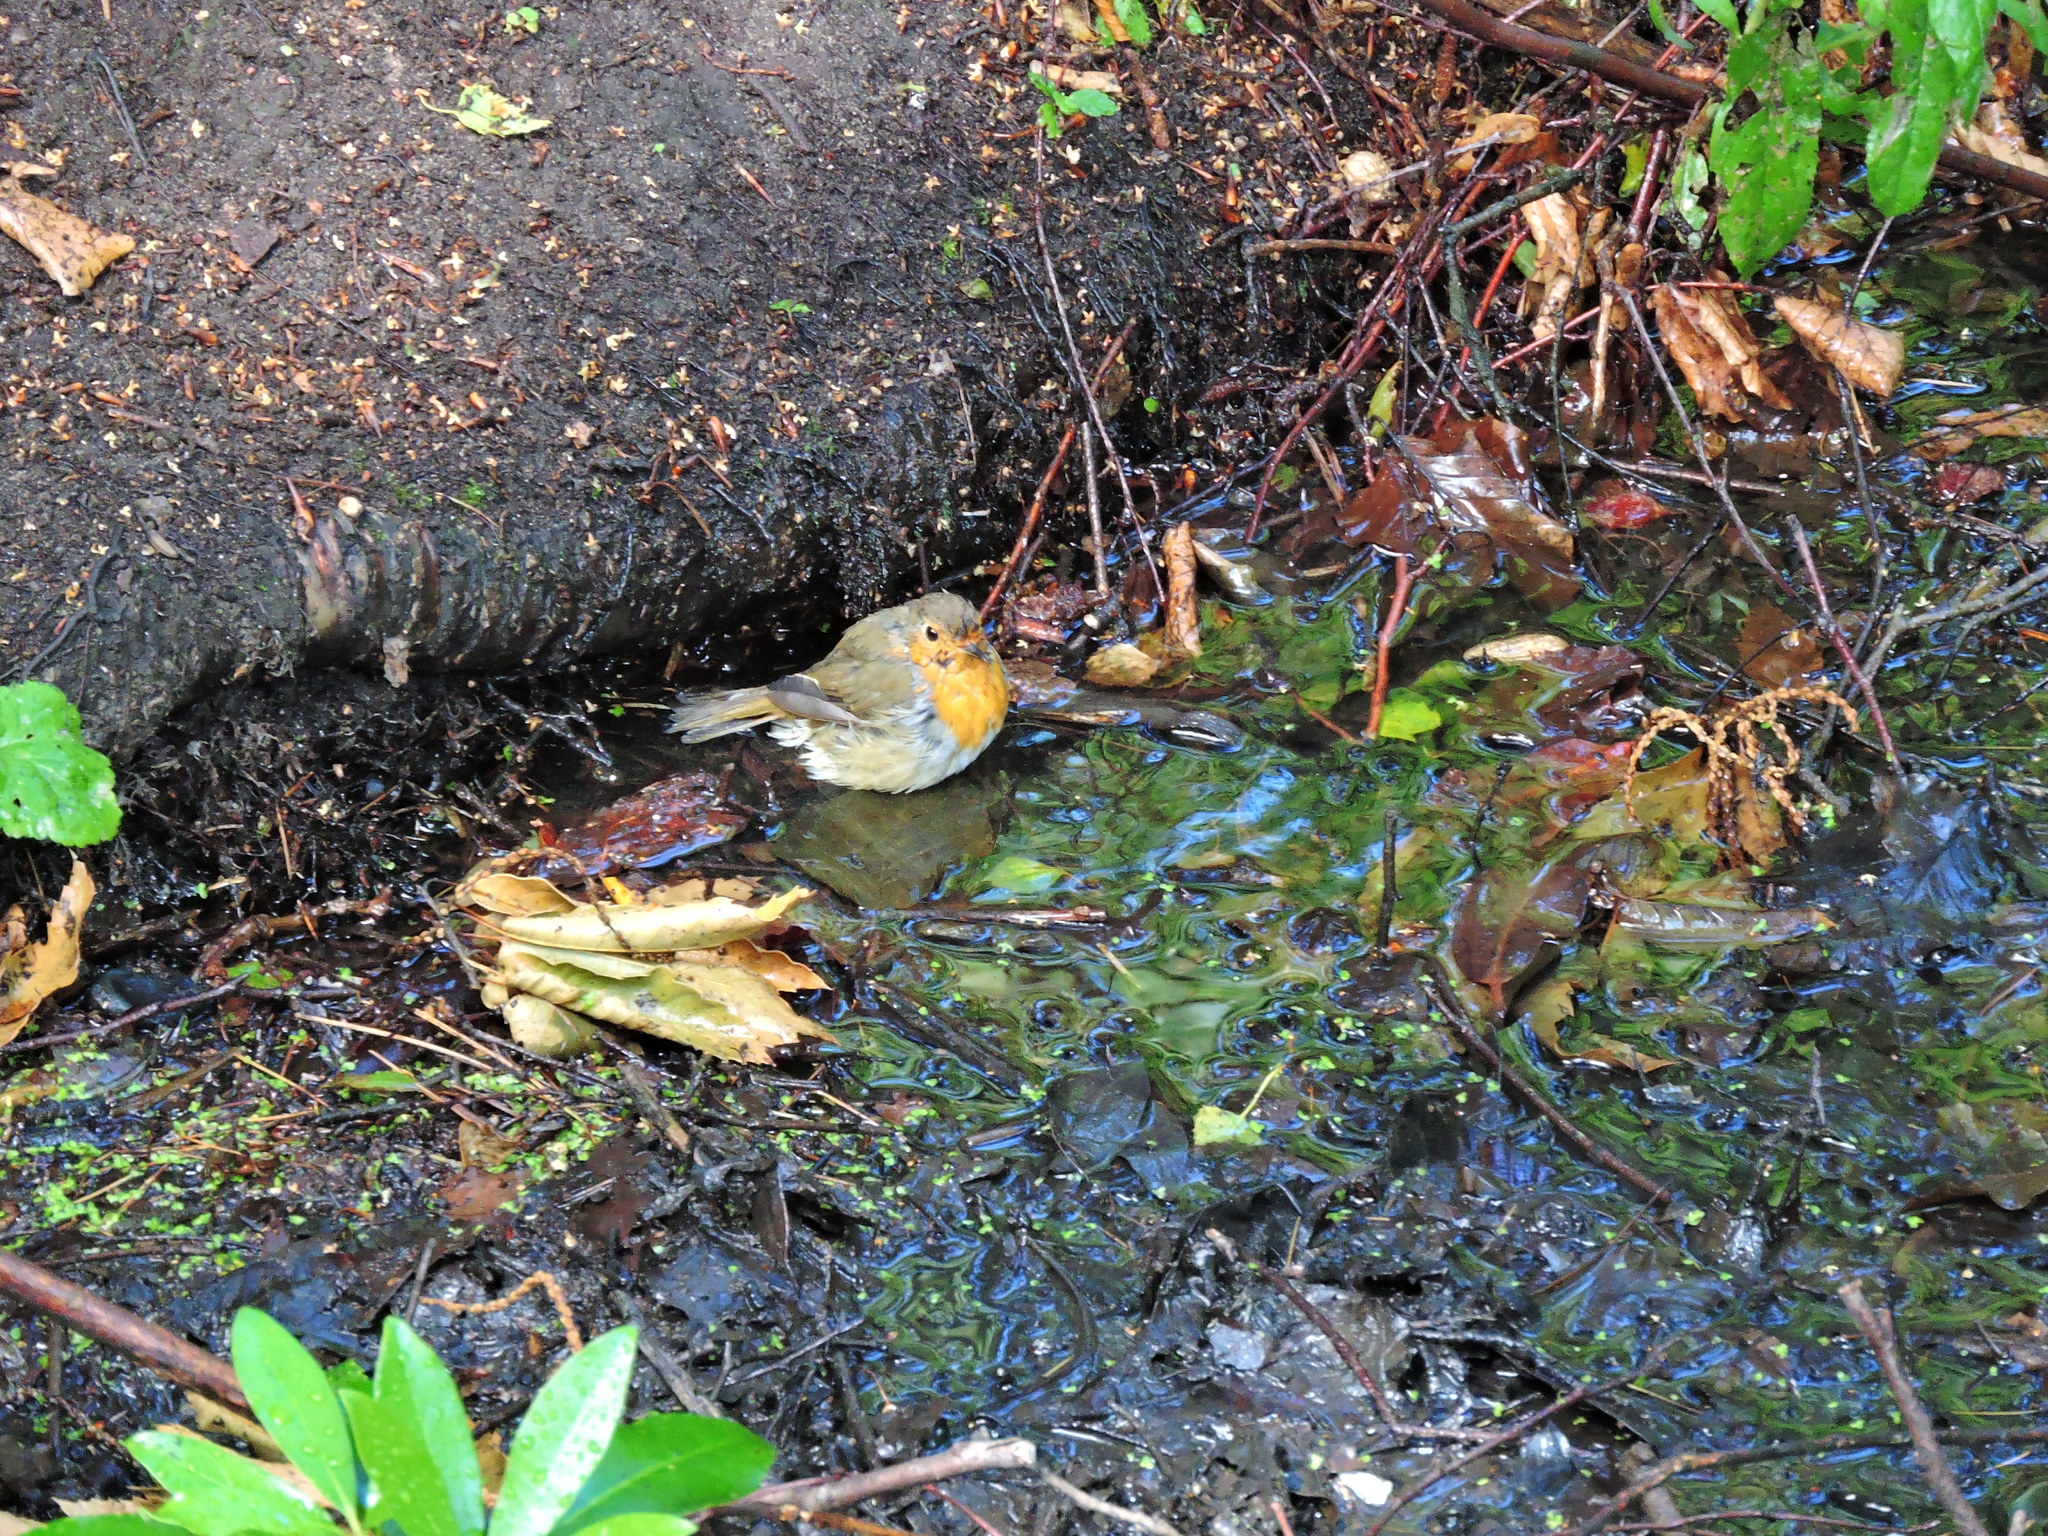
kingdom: Animalia
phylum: Chordata
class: Aves
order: Passeriformes
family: Muscicapidae
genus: Erithacus
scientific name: Erithacus rubecula
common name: European robin
